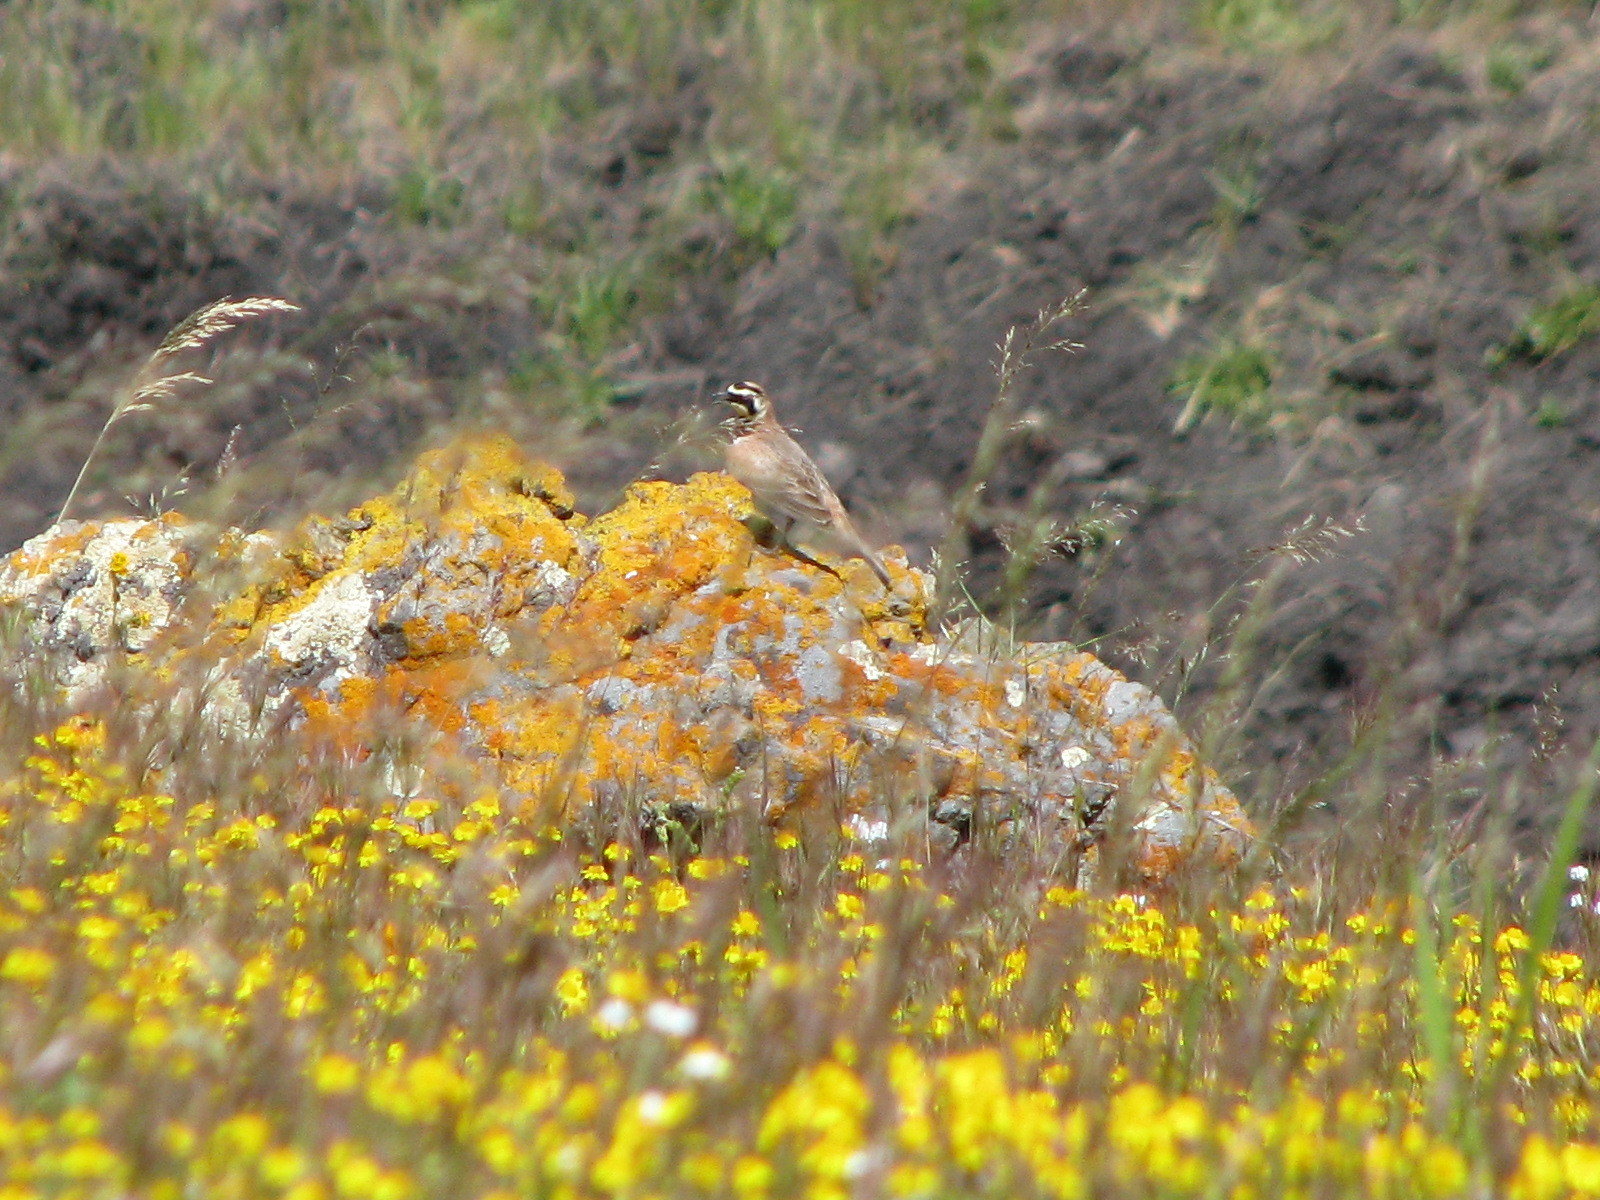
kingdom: Animalia
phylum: Chordata
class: Aves
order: Passeriformes
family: Alaudidae
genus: Eremophila
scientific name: Eremophila alpestris
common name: Horned lark
